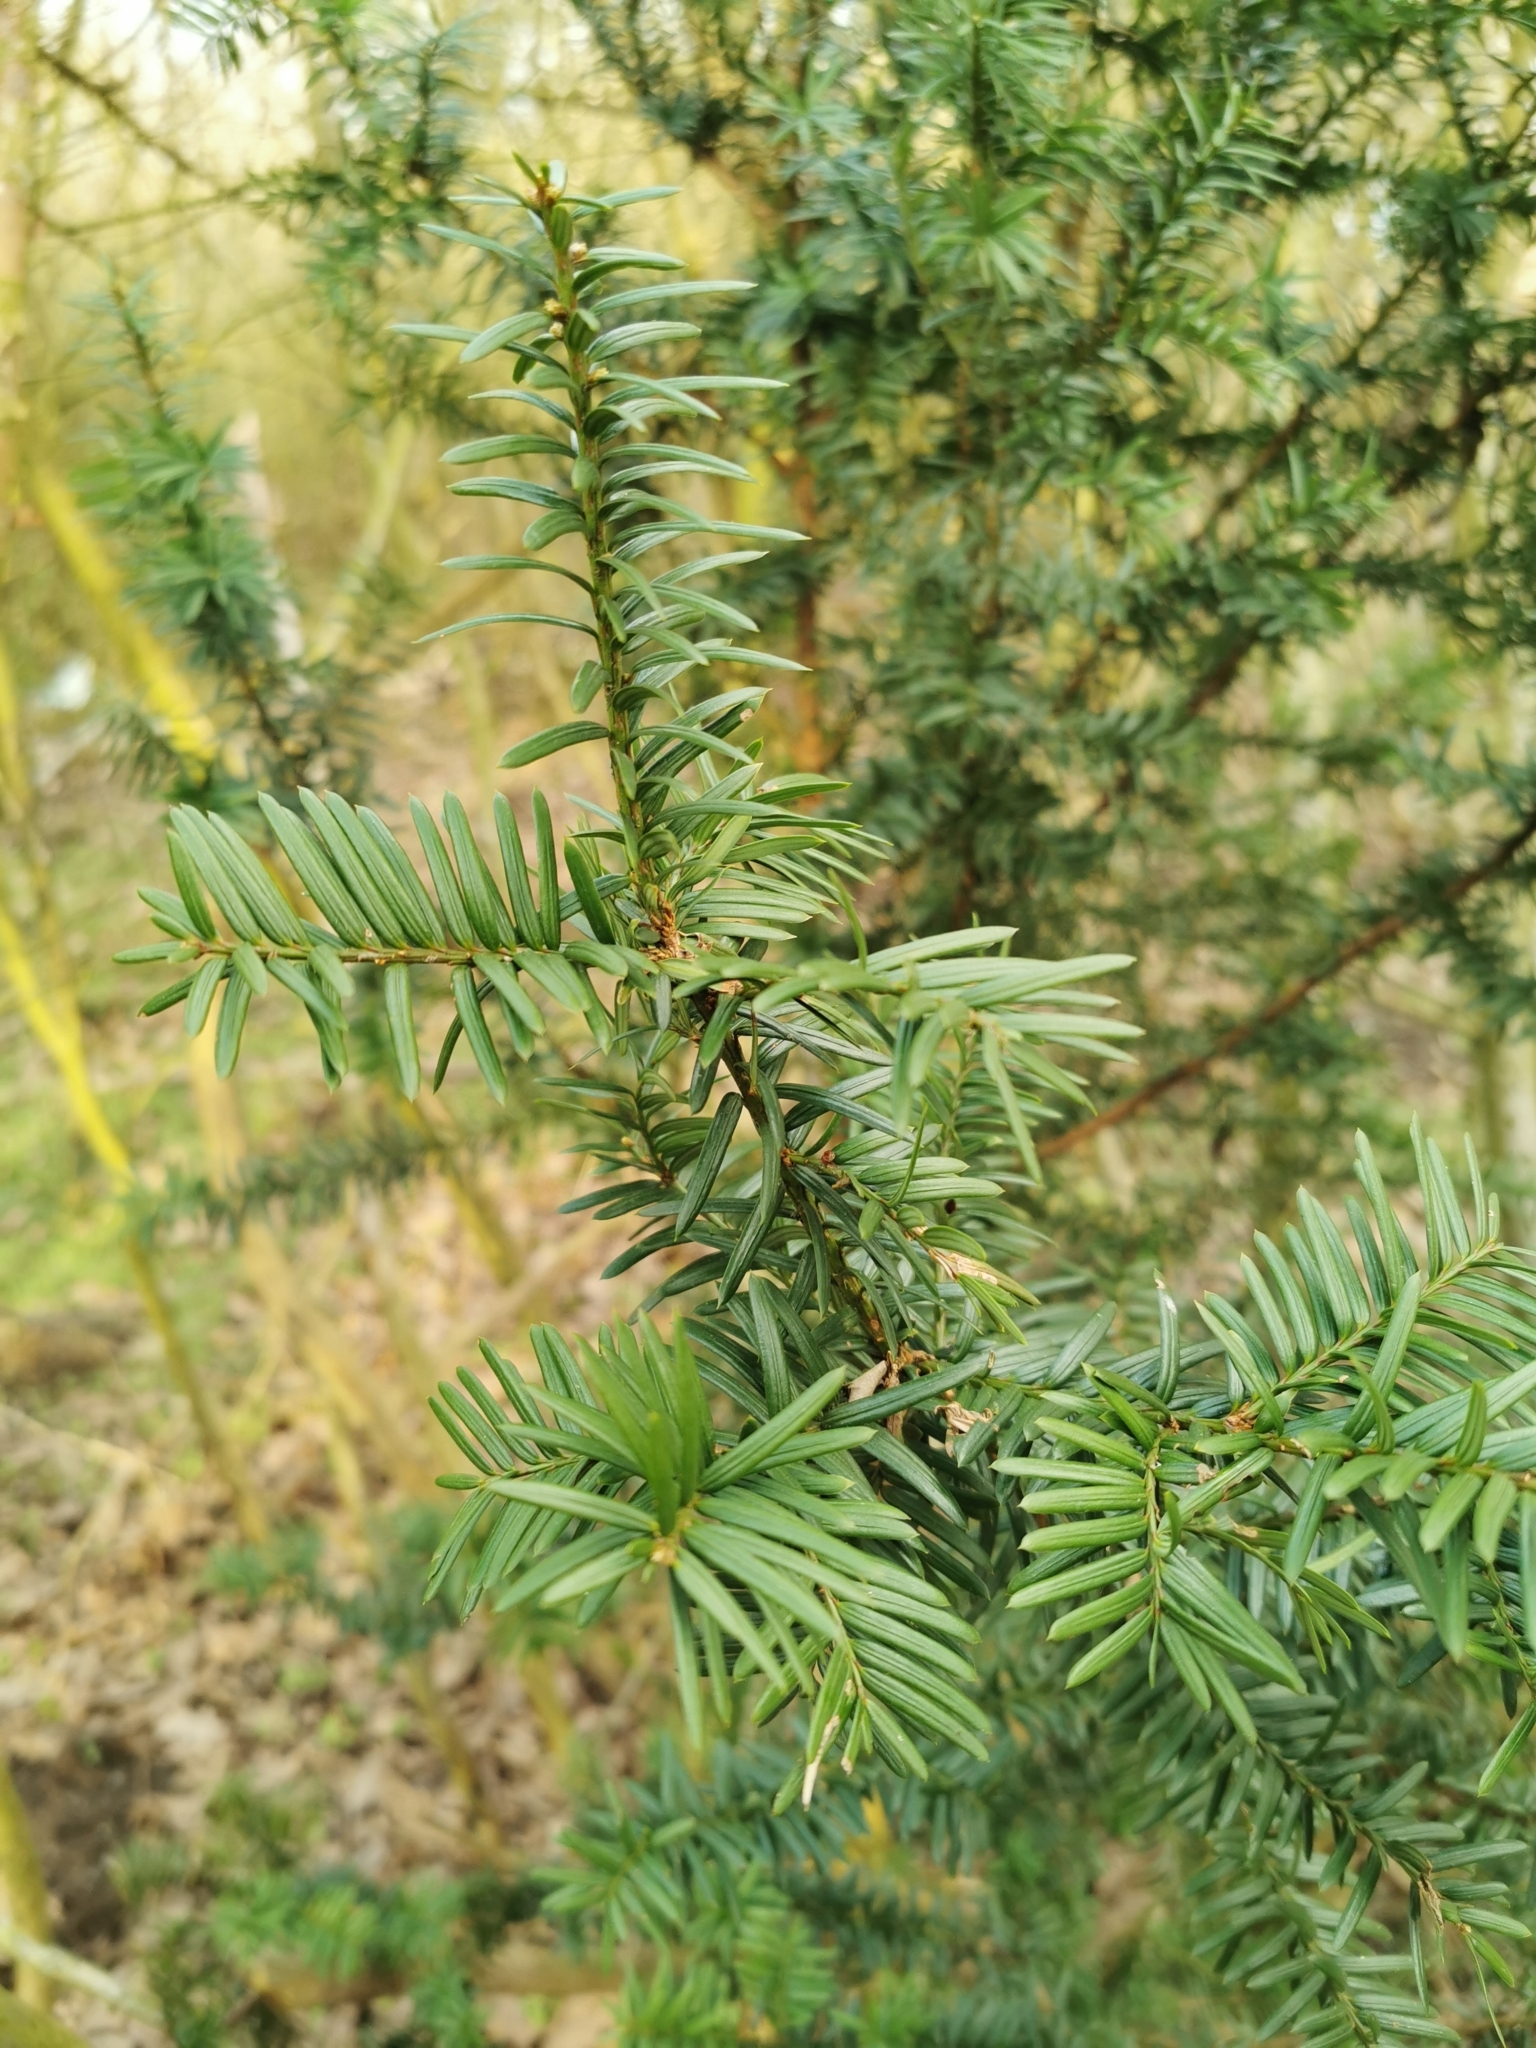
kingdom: Plantae
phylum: Tracheophyta
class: Pinopsida
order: Pinales
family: Taxaceae
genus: Taxus
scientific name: Taxus baccata
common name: Yew
